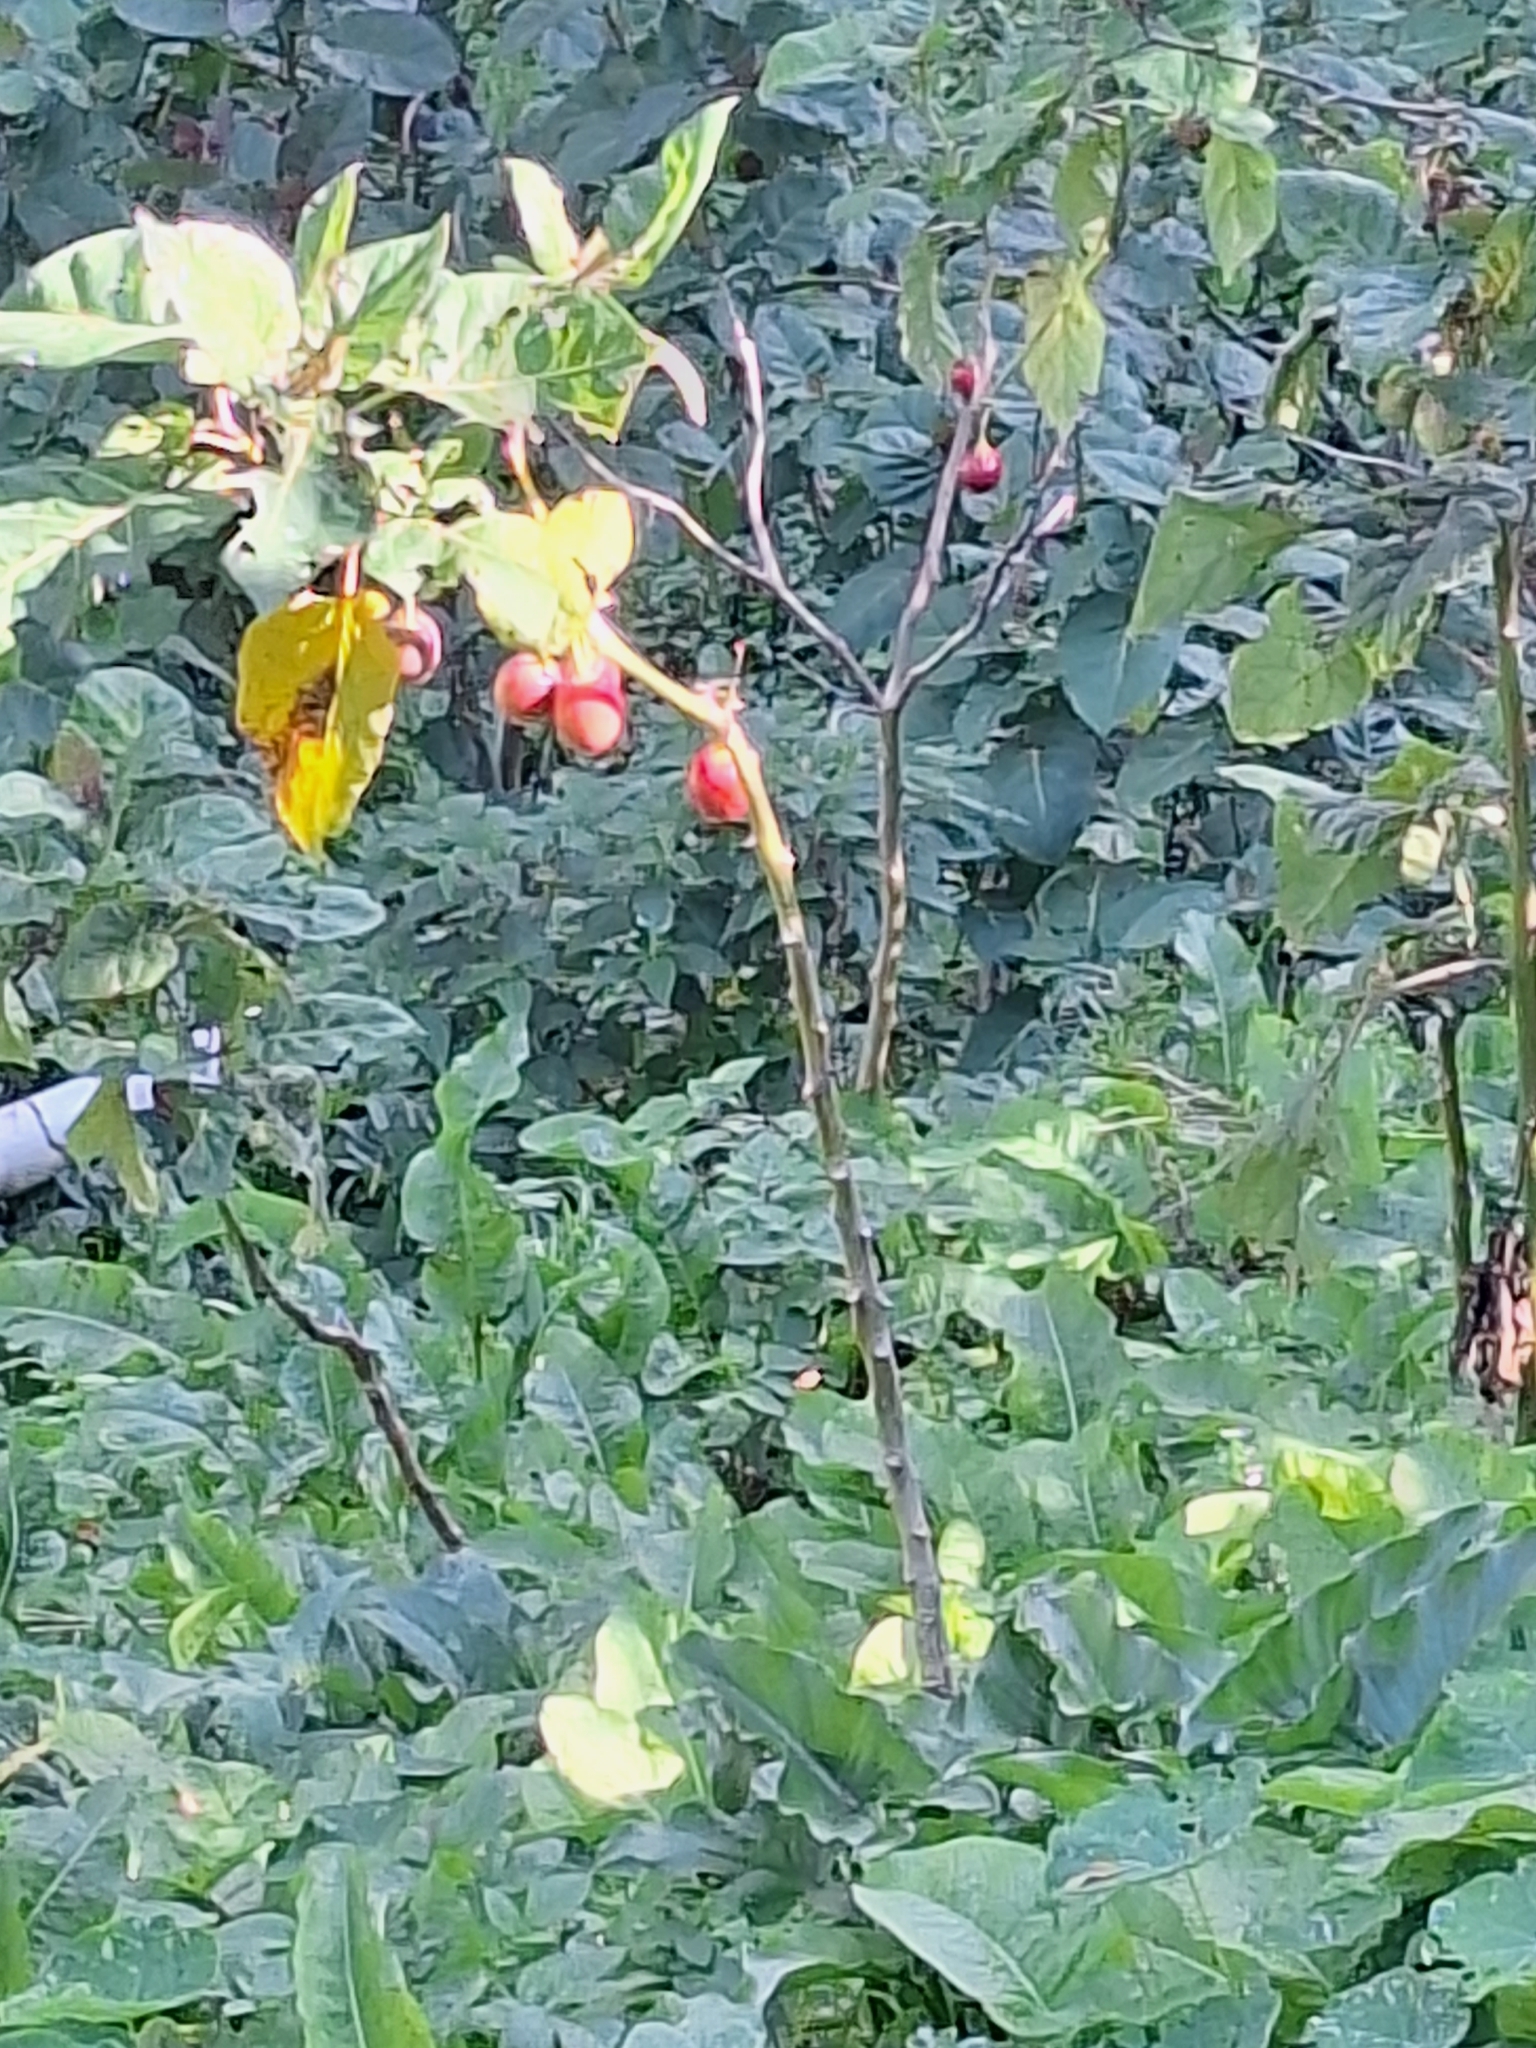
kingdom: Plantae
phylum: Tracheophyta
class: Magnoliopsida
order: Solanales
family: Solanaceae
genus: Solanum
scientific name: Solanum betaceum
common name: Tamarillo
